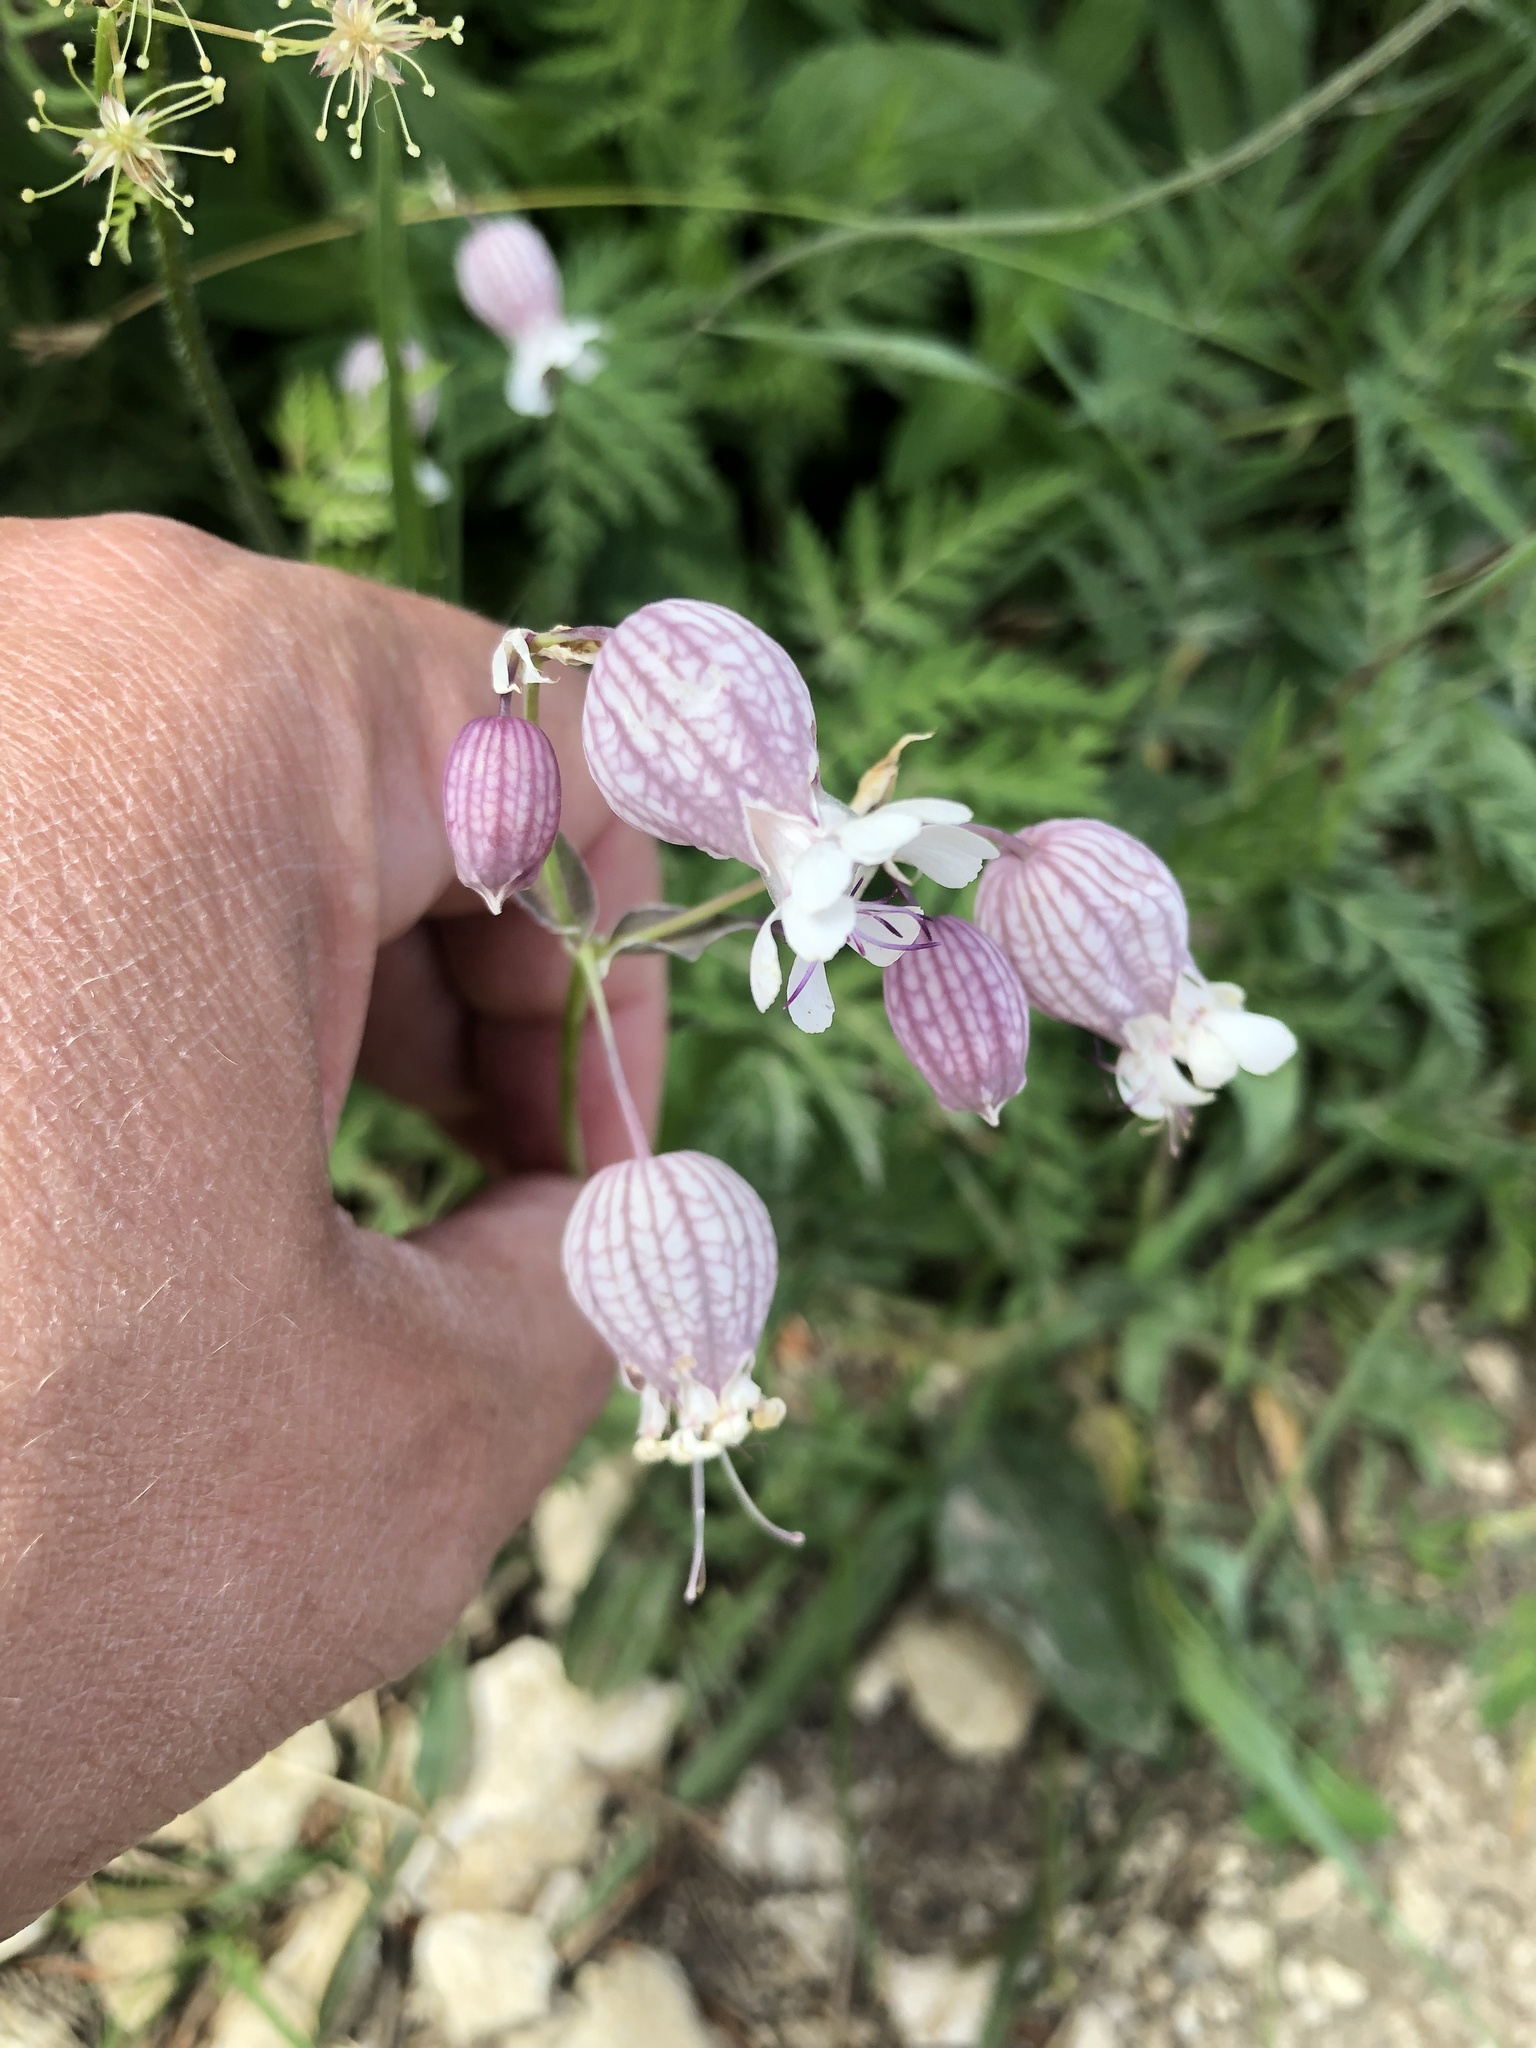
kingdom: Plantae
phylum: Tracheophyta
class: Magnoliopsida
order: Caryophyllales
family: Caryophyllaceae
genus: Silene
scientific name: Silene vulgaris
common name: Bladder campion
